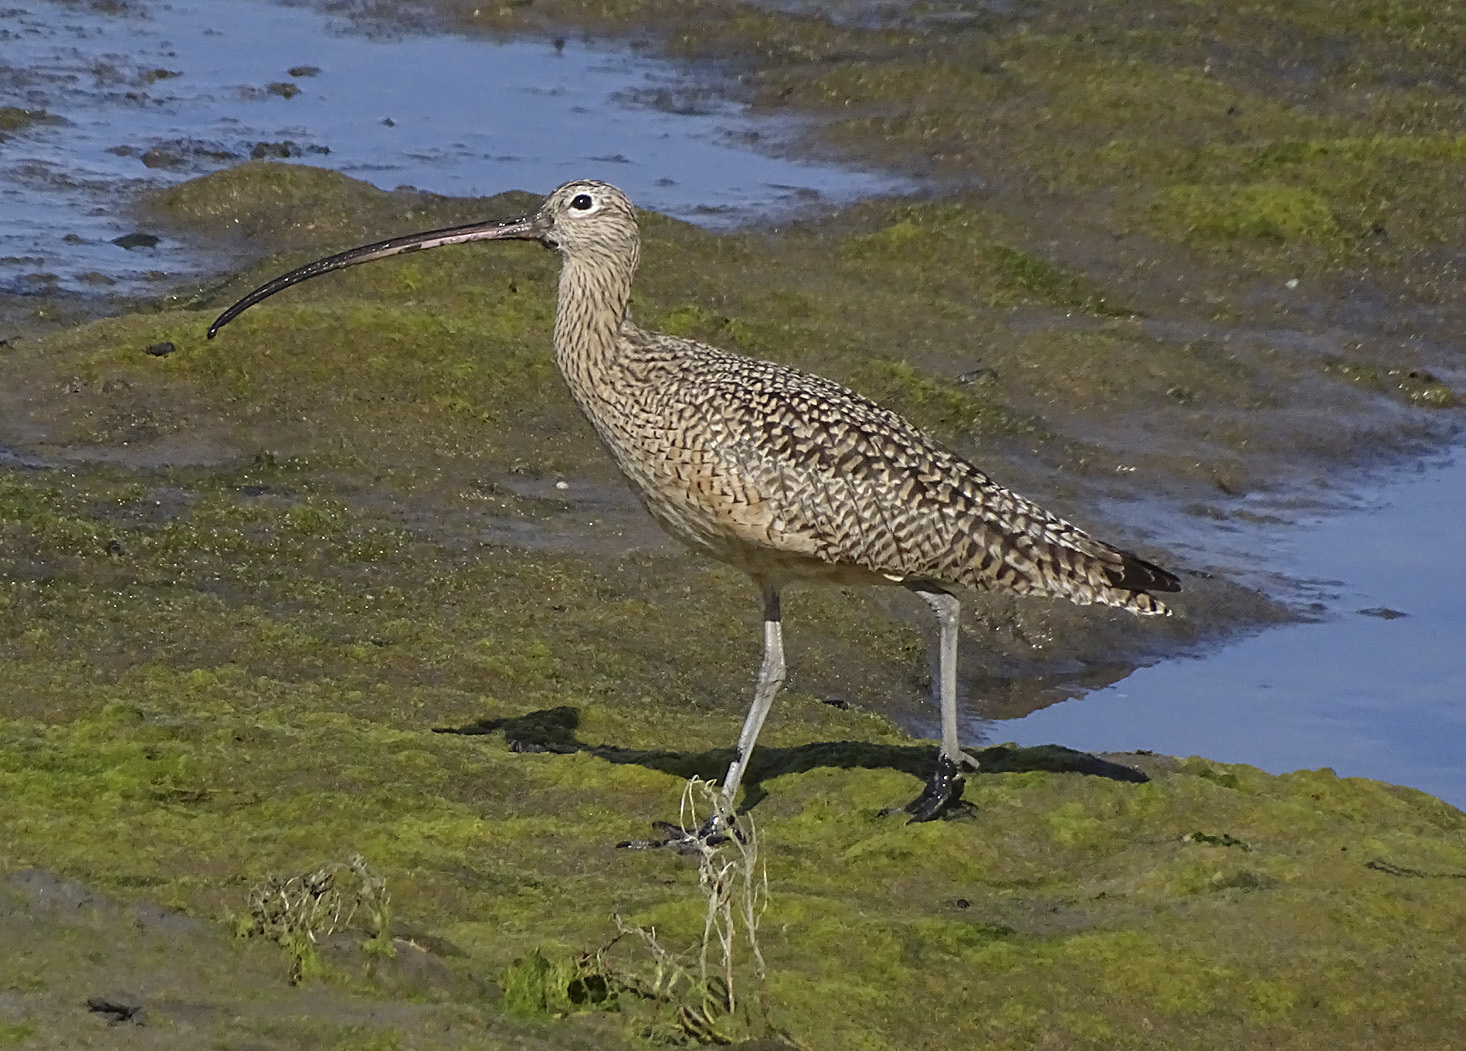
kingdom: Animalia
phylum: Chordata
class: Aves
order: Charadriiformes
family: Scolopacidae
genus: Numenius
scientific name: Numenius americanus
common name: Long-billed curlew
